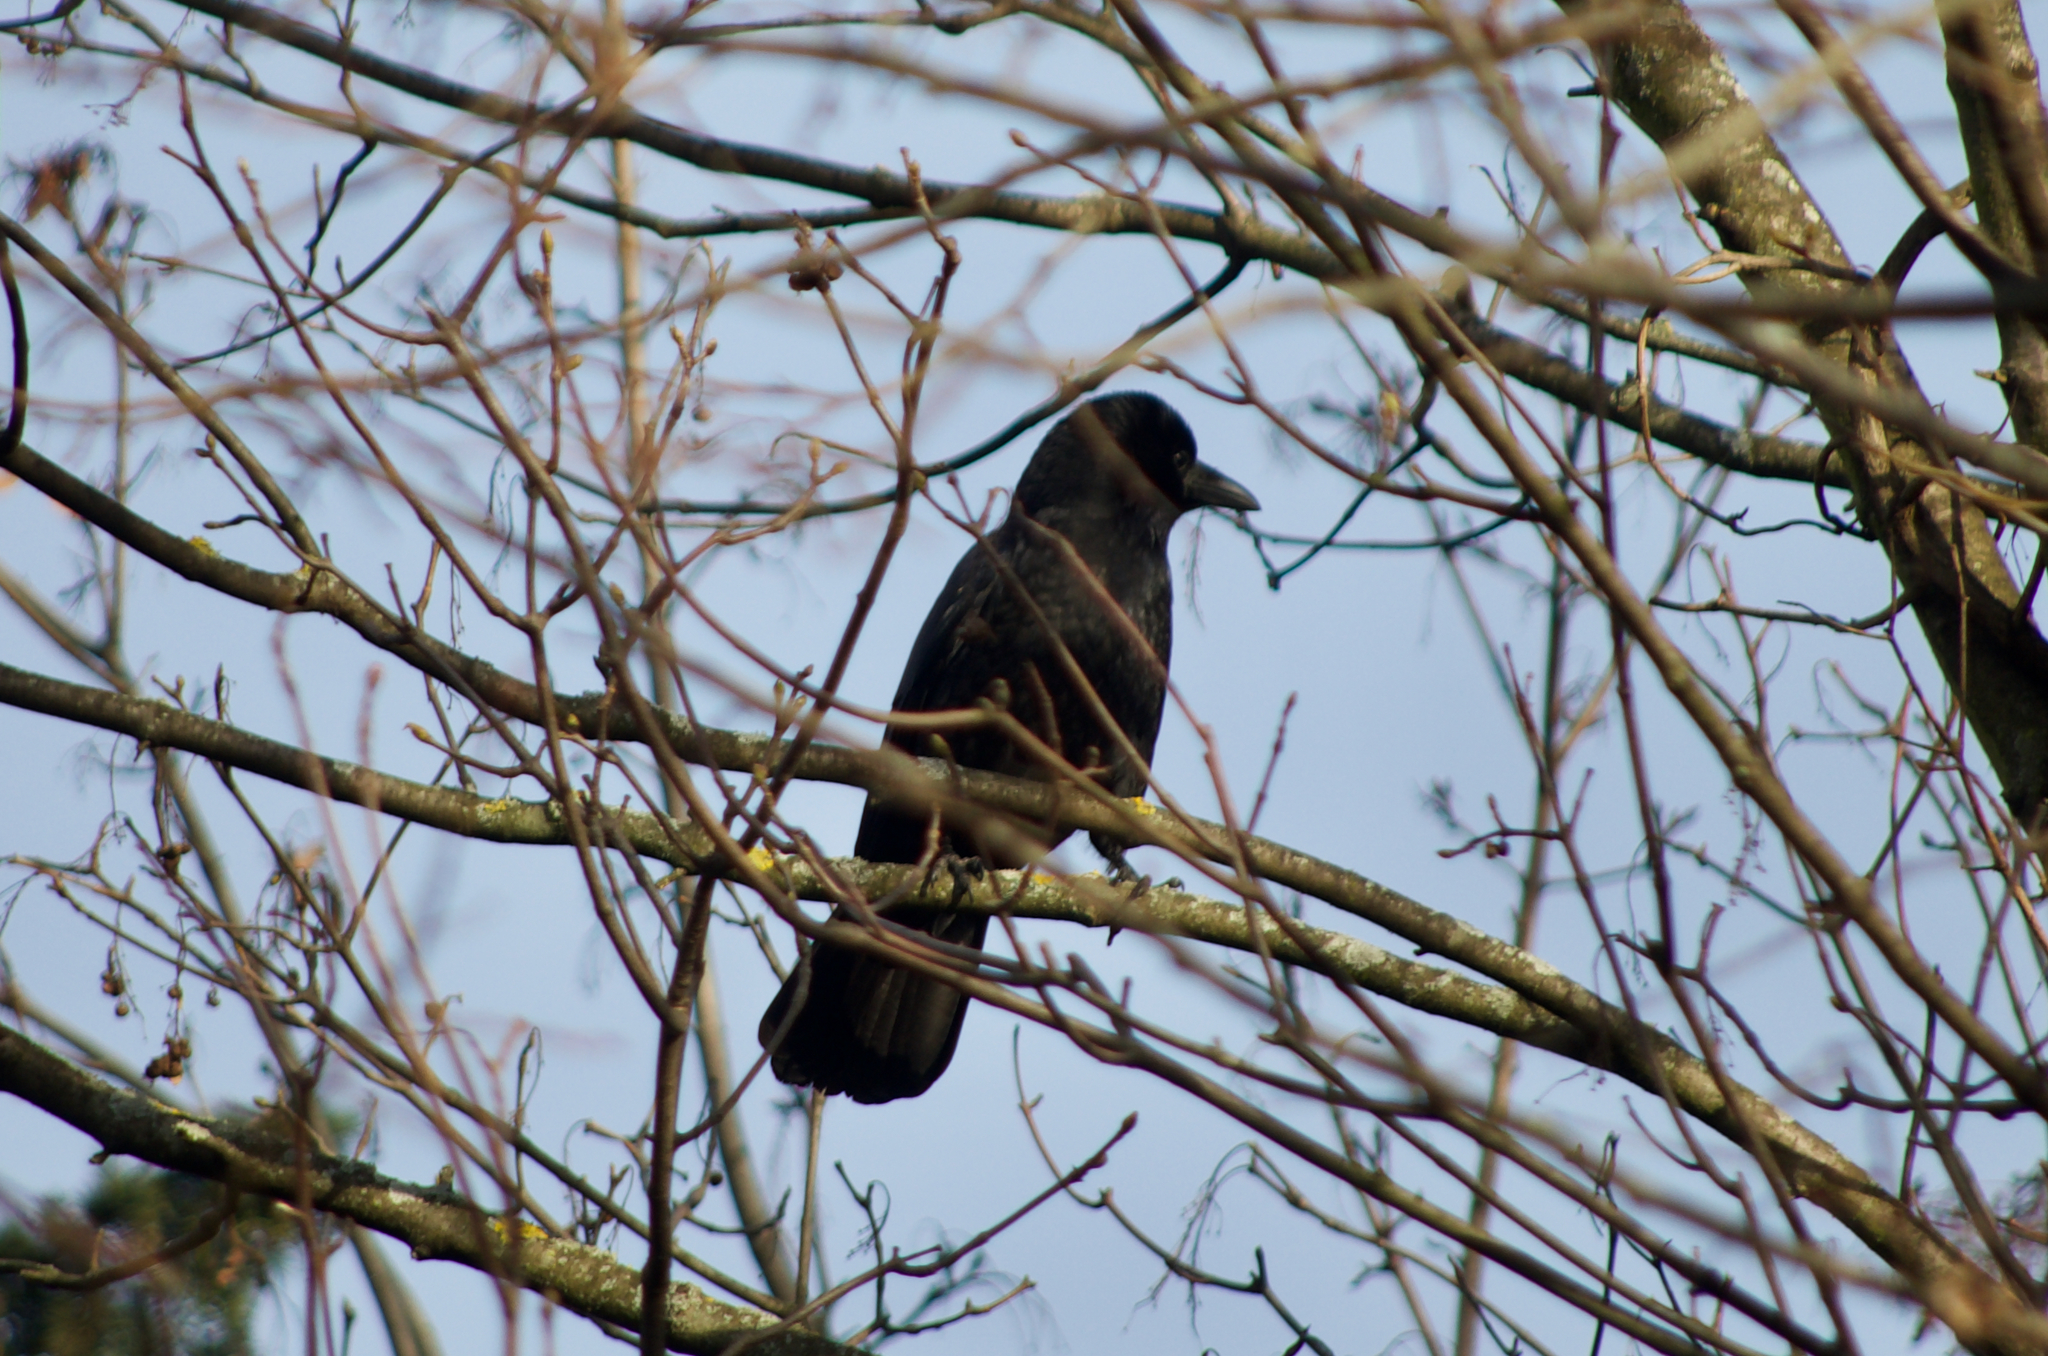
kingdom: Animalia
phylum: Chordata
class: Aves
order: Passeriformes
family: Corvidae
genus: Corvus
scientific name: Corvus corone
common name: Carrion crow
